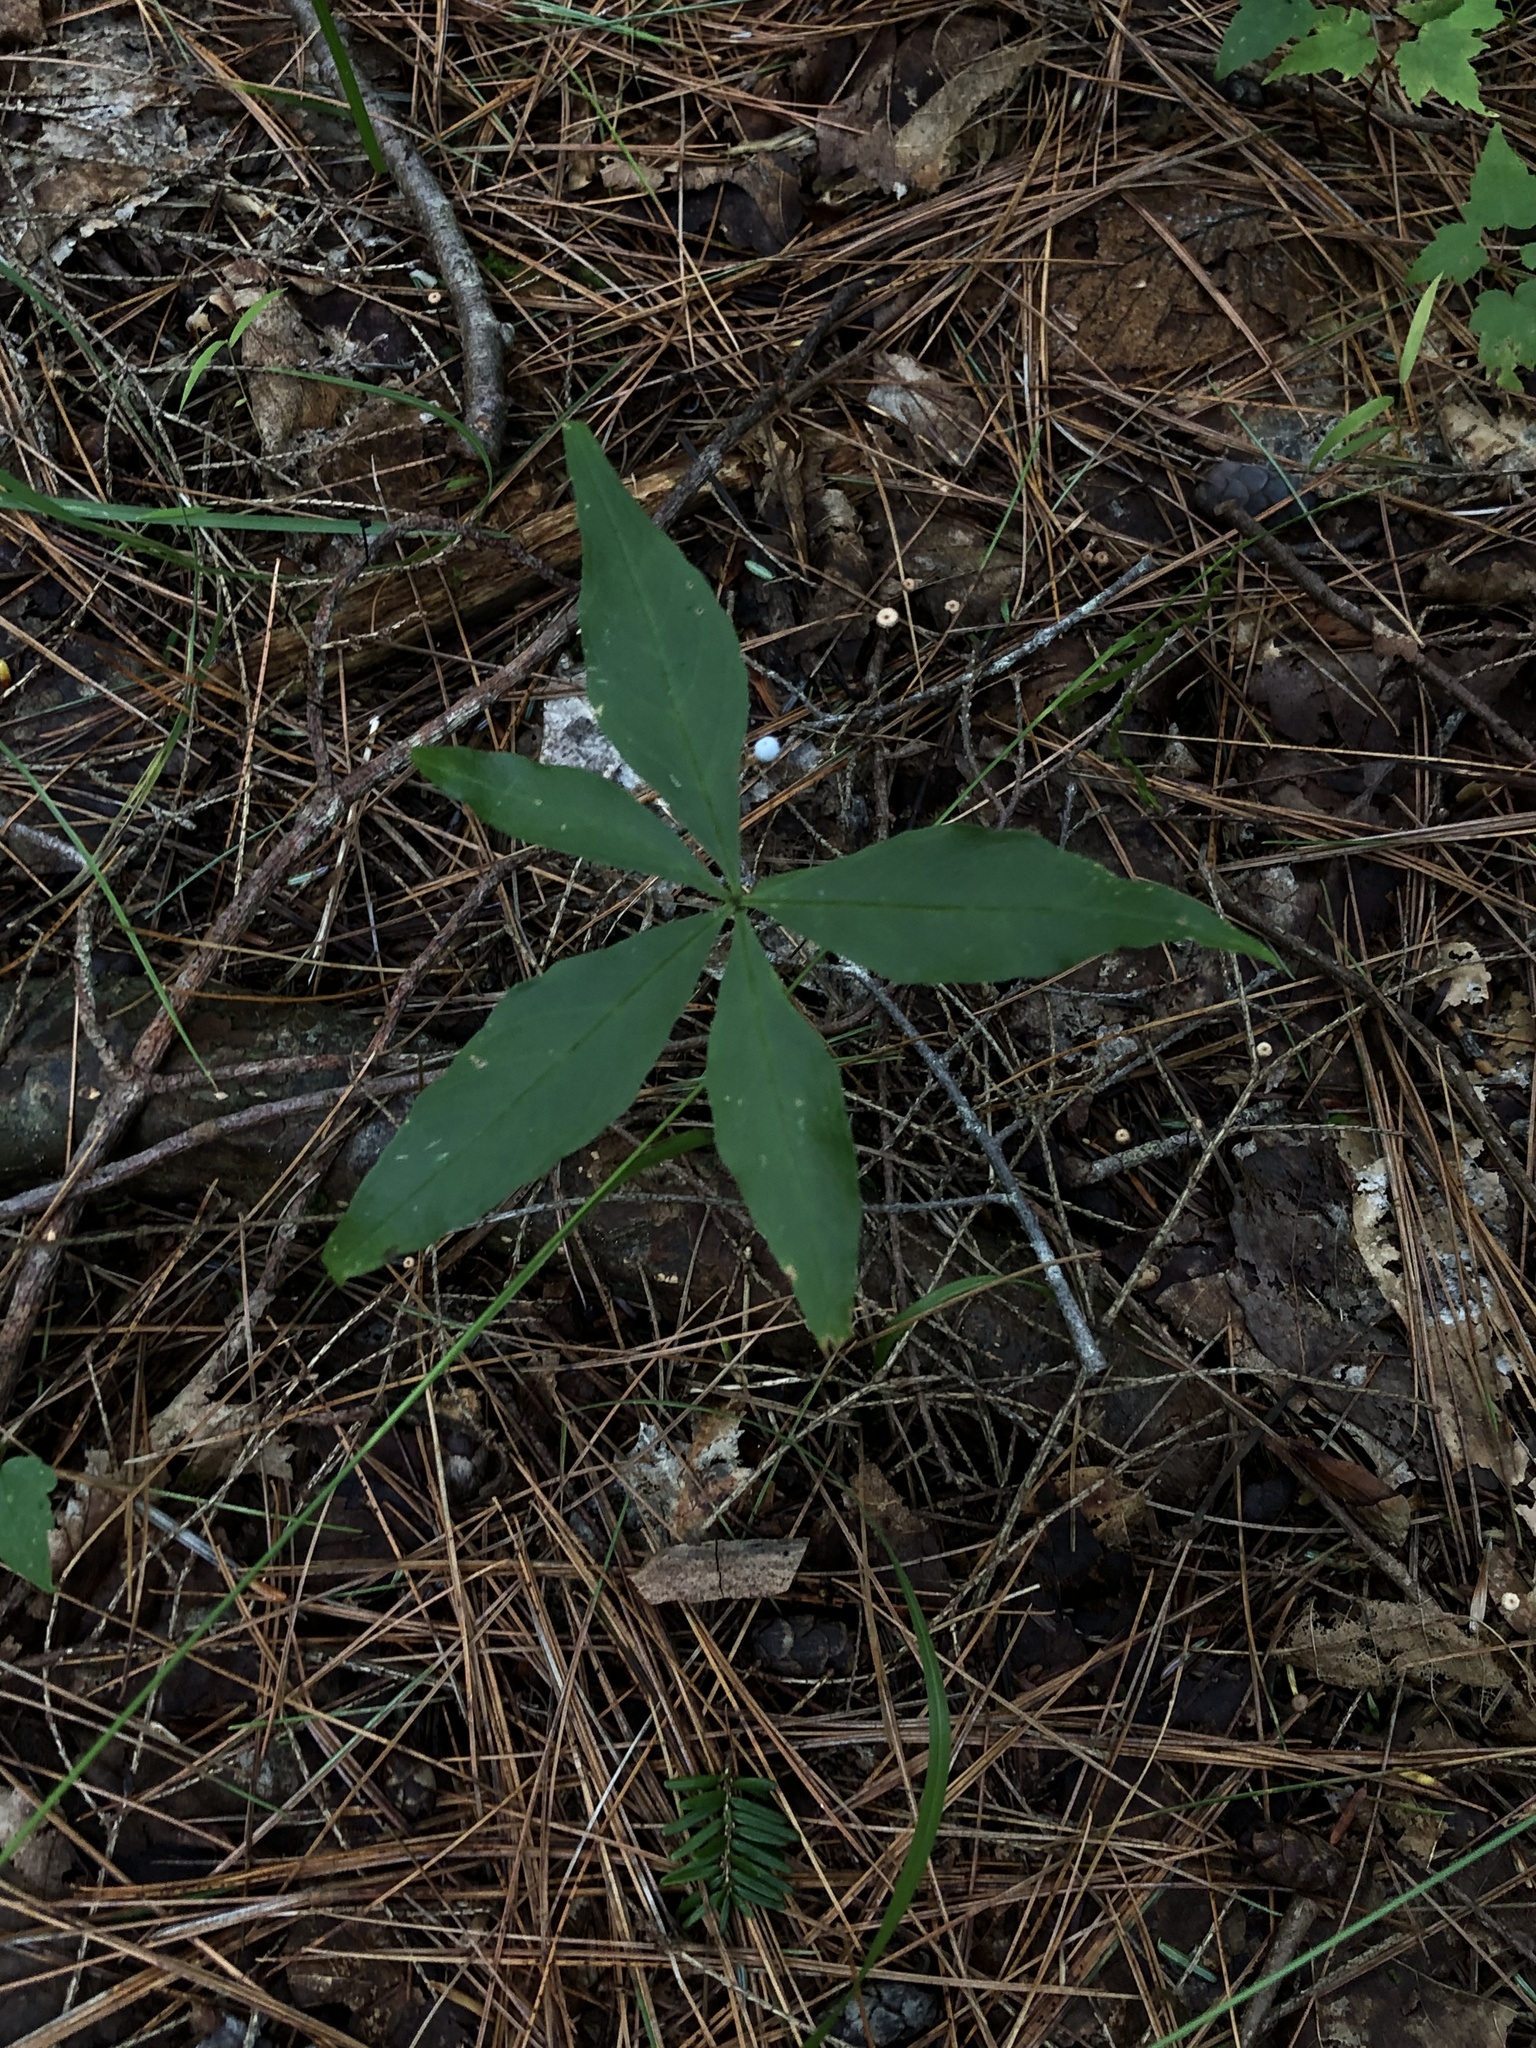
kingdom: Plantae
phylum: Tracheophyta
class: Magnoliopsida
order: Ericales
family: Primulaceae
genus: Lysimachia
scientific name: Lysimachia borealis
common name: American starflower
